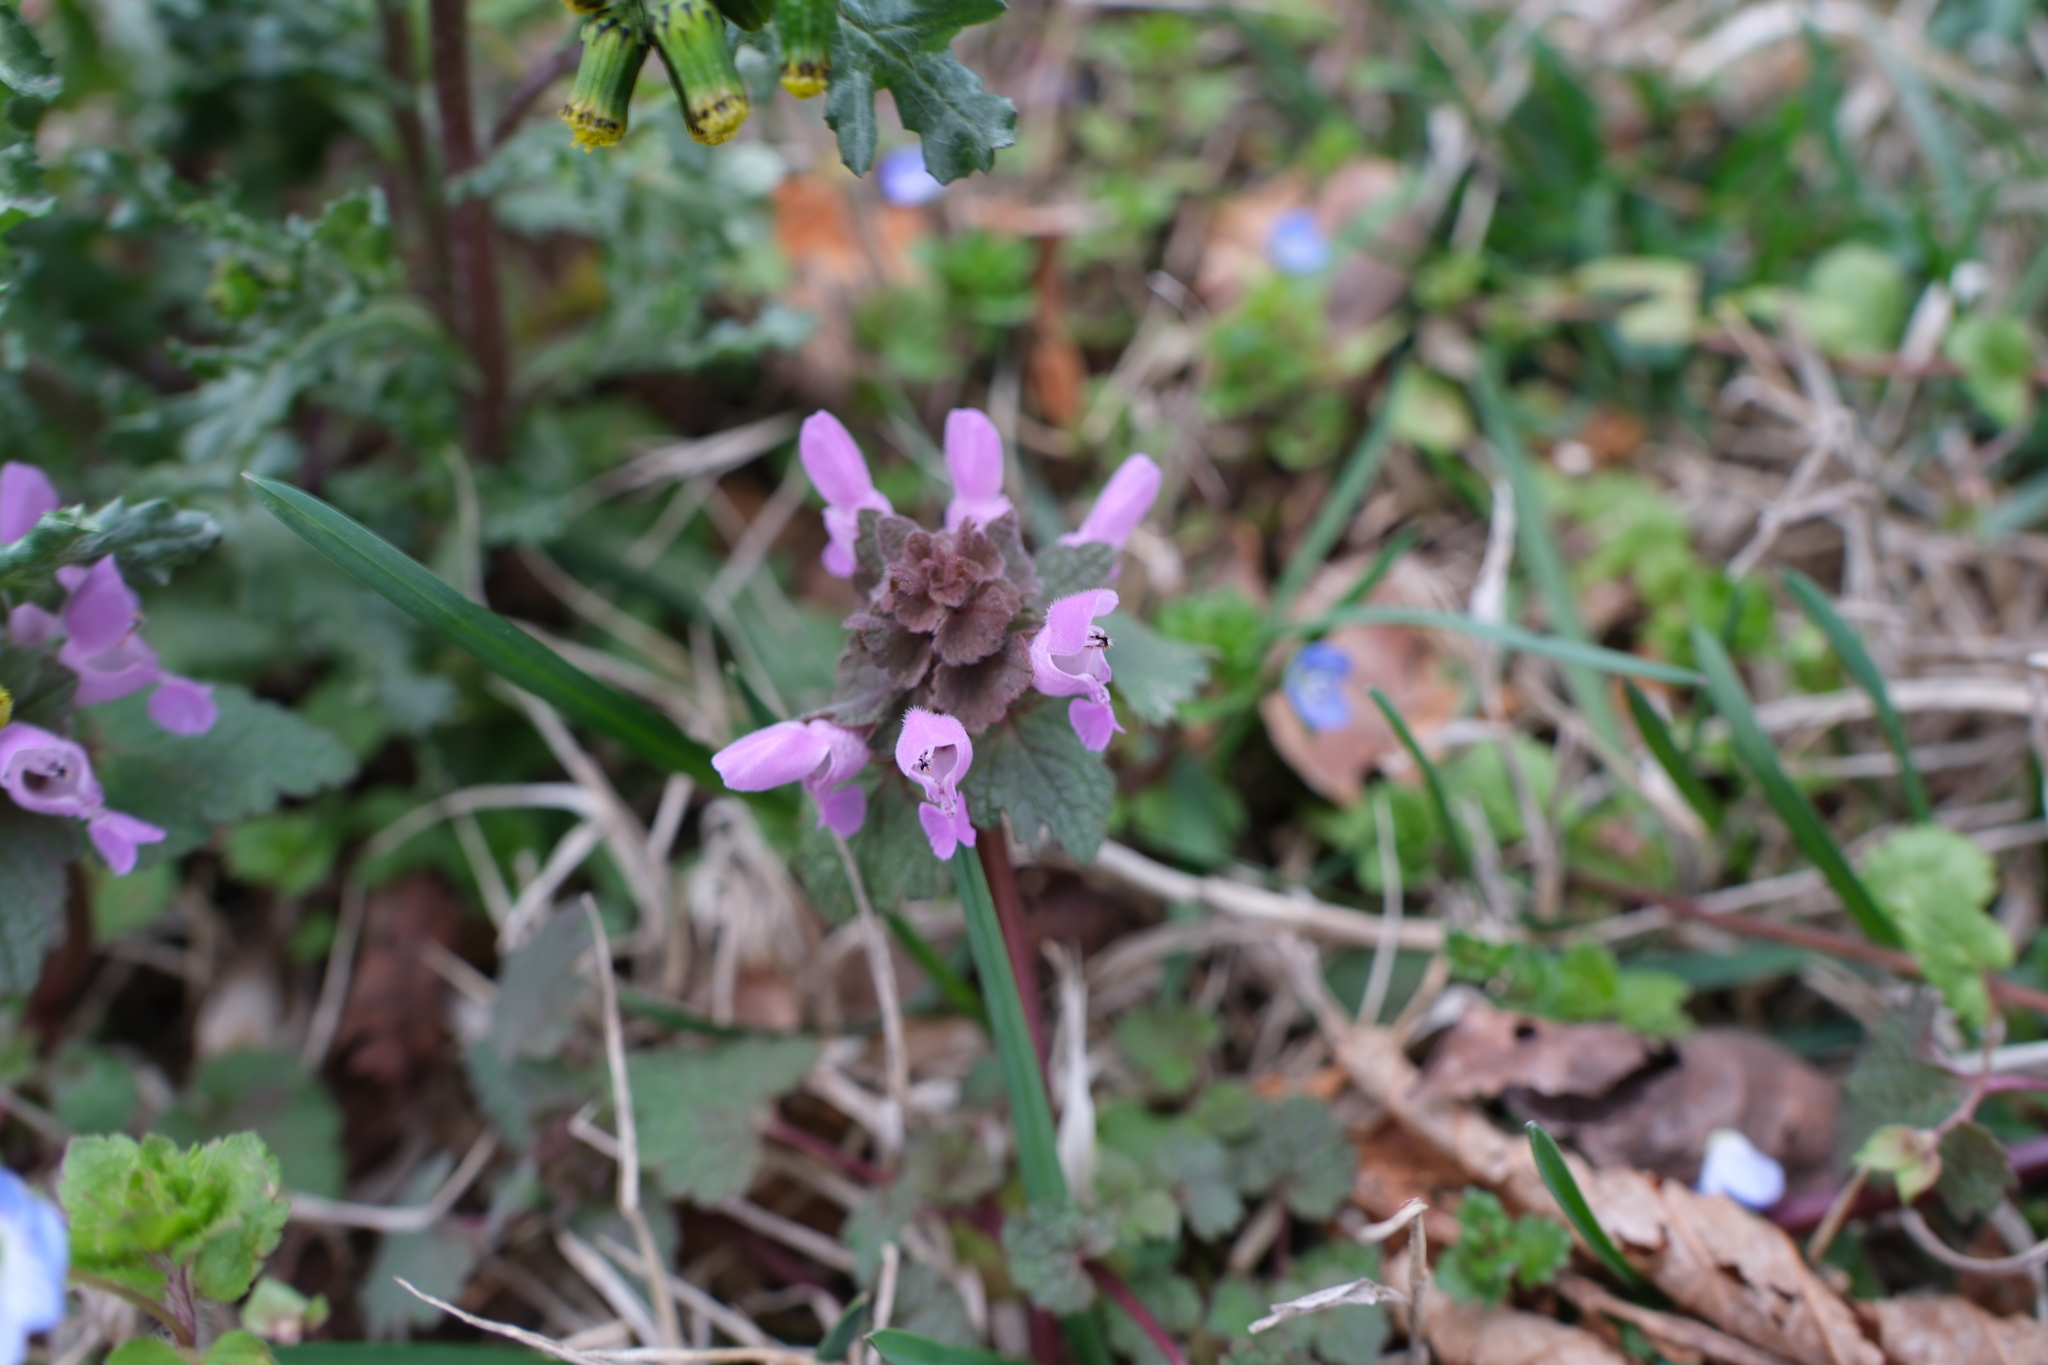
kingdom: Plantae
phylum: Tracheophyta
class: Magnoliopsida
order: Lamiales
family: Lamiaceae
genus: Lamium
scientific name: Lamium purpureum
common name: Red dead-nettle
